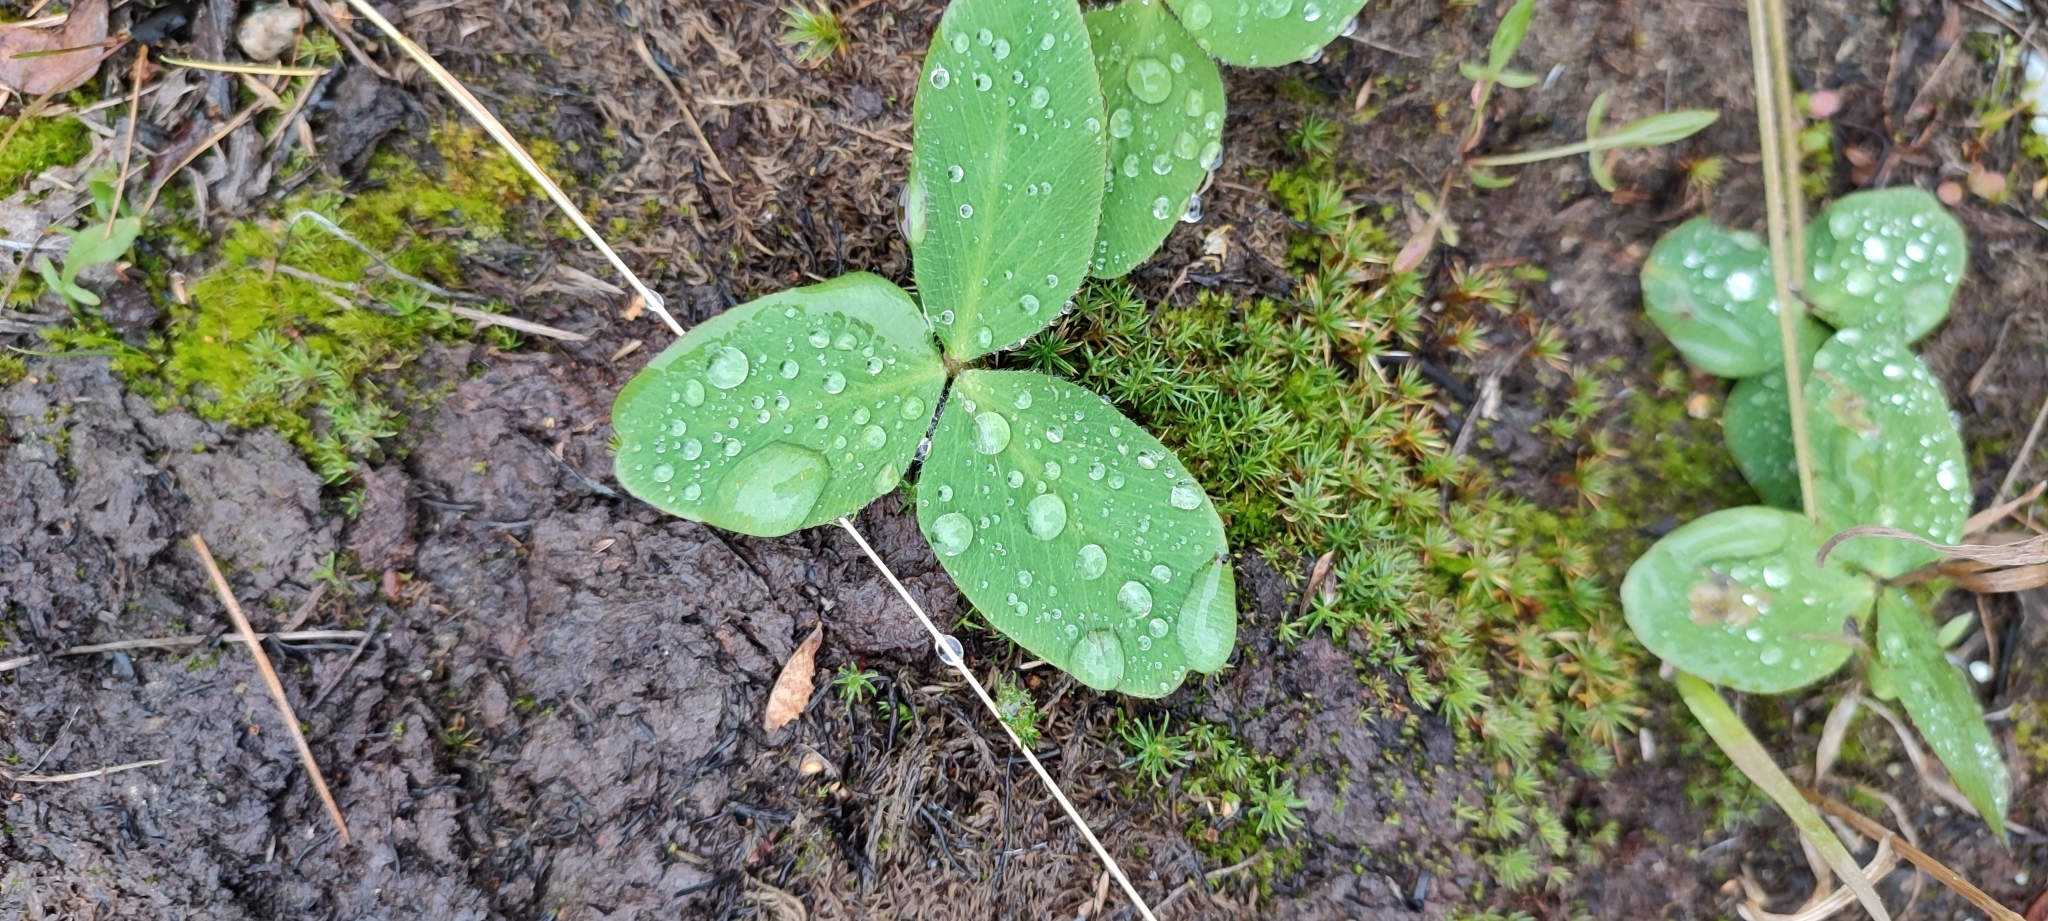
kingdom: Plantae
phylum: Tracheophyta
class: Magnoliopsida
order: Fabales
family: Fabaceae
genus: Trifolium
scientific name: Trifolium pratense
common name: Red clover
